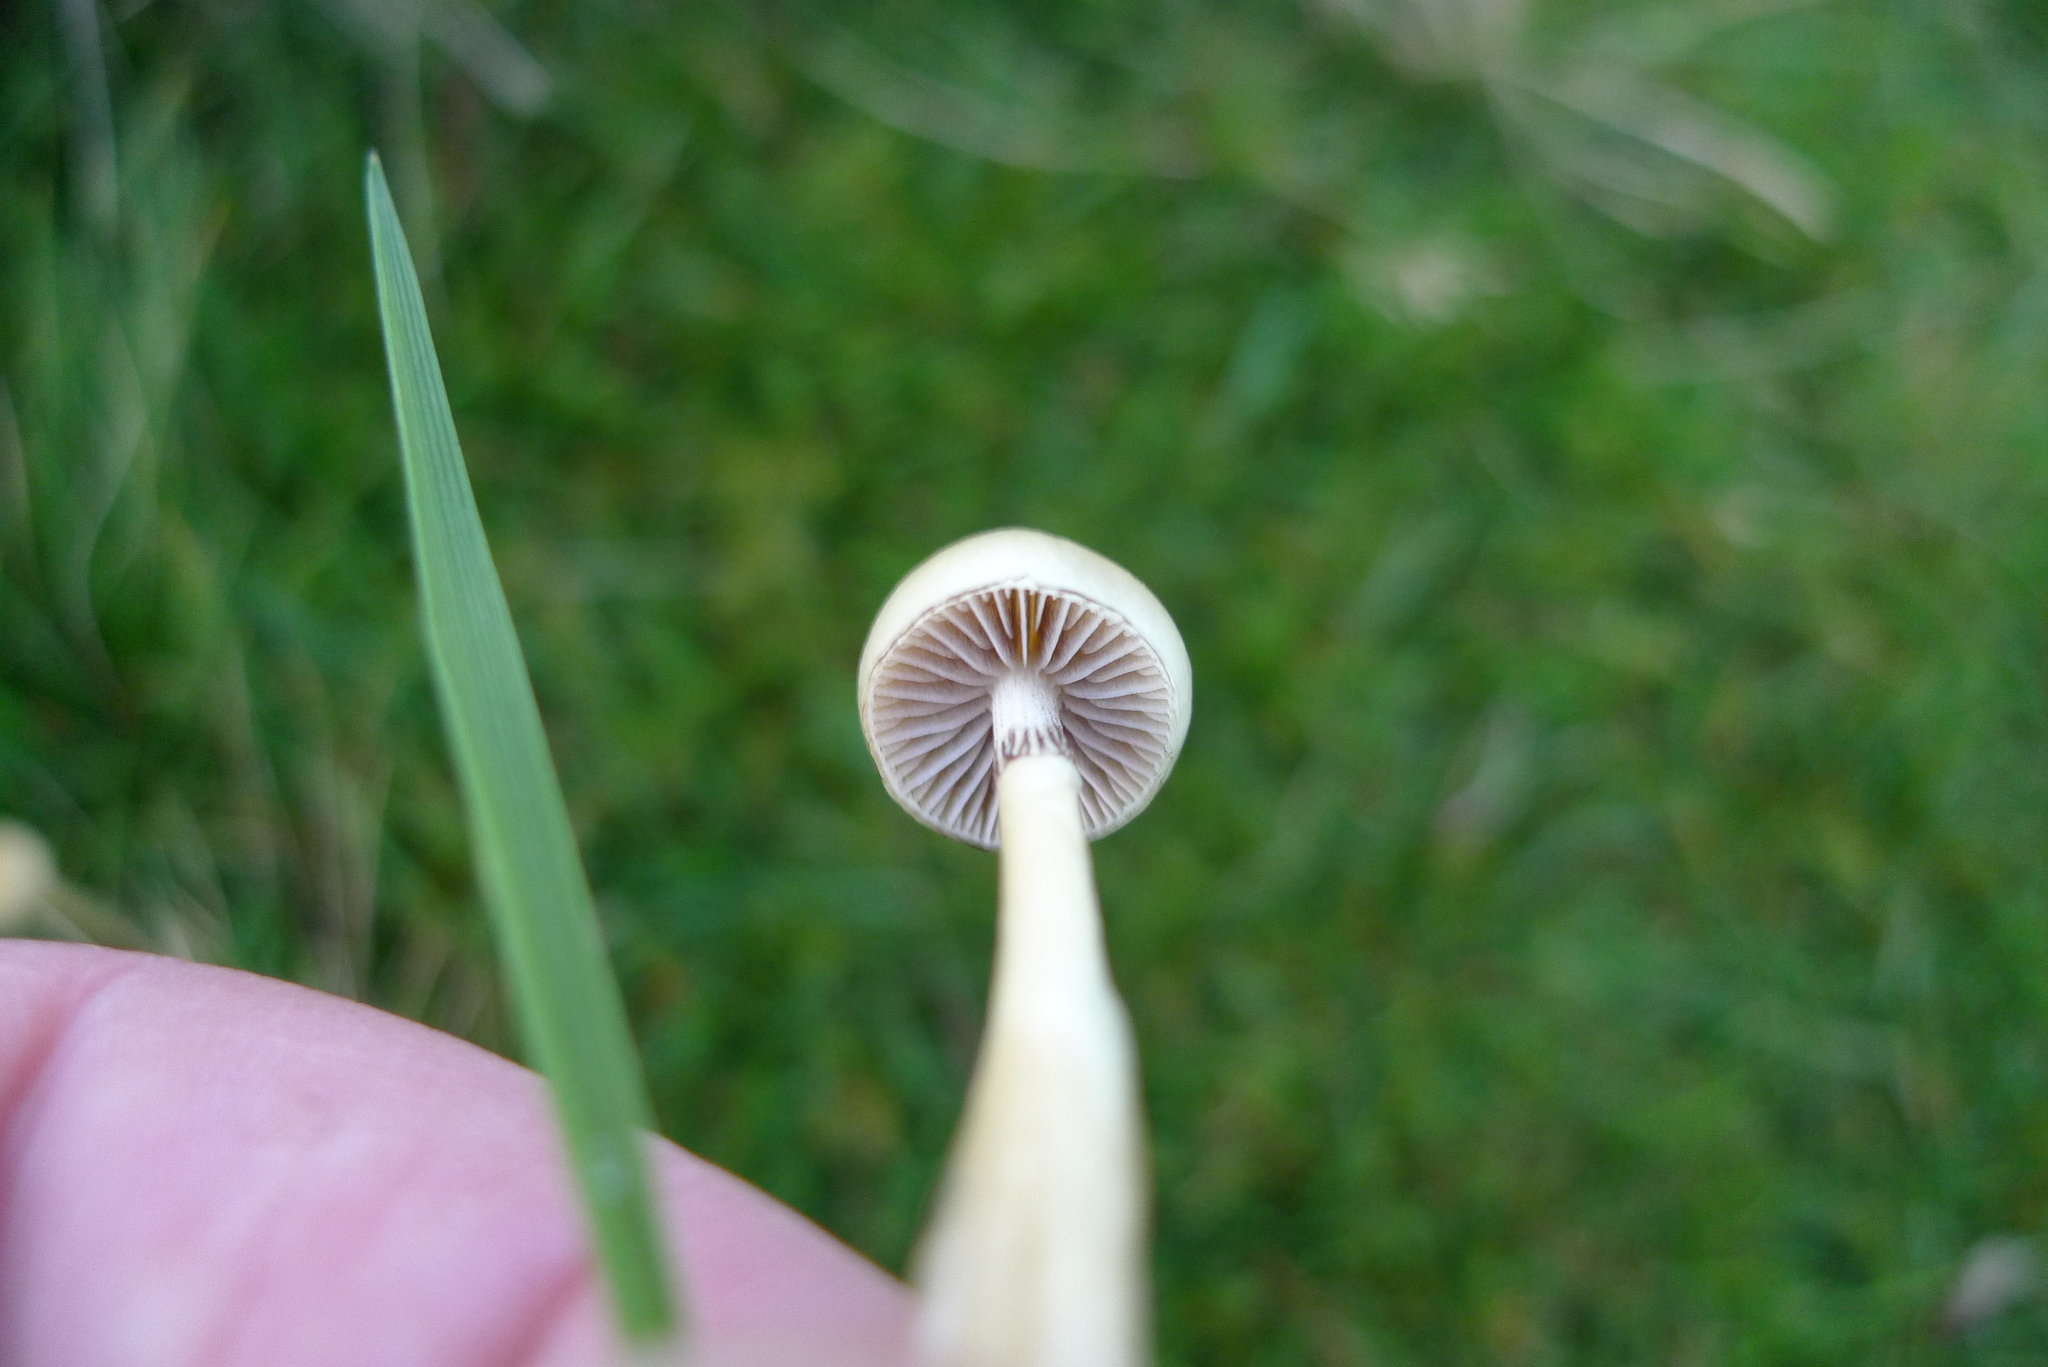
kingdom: Fungi
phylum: Basidiomycota
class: Agaricomycetes
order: Agaricales
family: Strophariaceae
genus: Protostropharia
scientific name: Protostropharia semiglobata
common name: Dung roundhead
